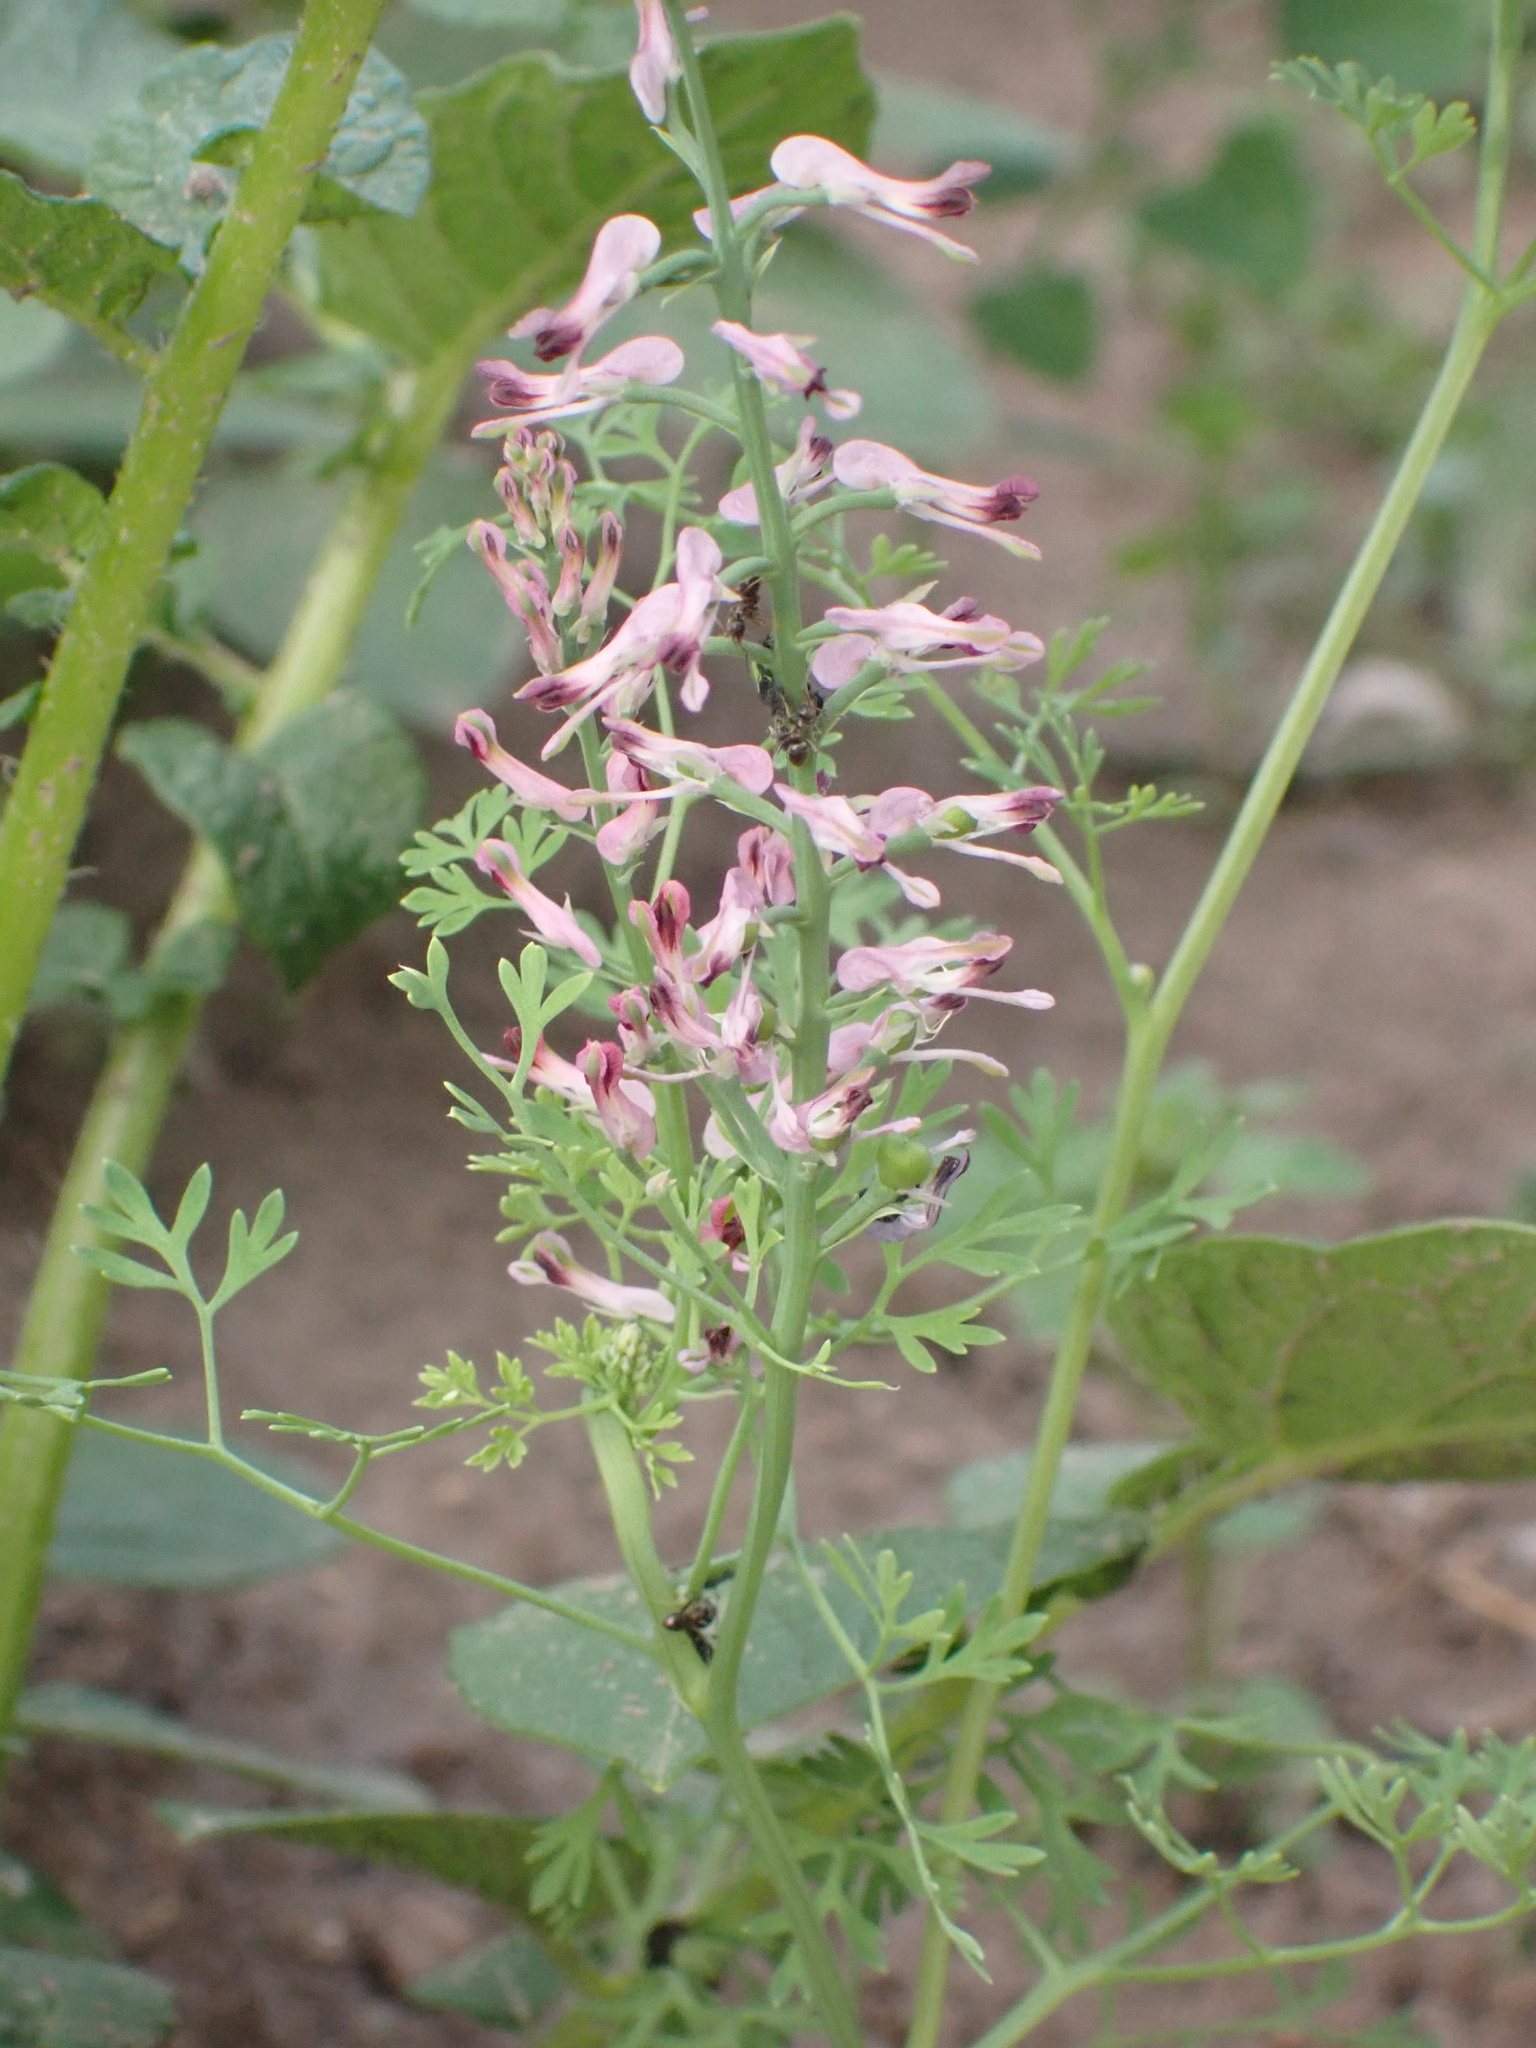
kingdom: Plantae
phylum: Tracheophyta
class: Magnoliopsida
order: Ranunculales
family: Papaveraceae
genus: Fumaria
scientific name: Fumaria officinalis
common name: Common fumitory
